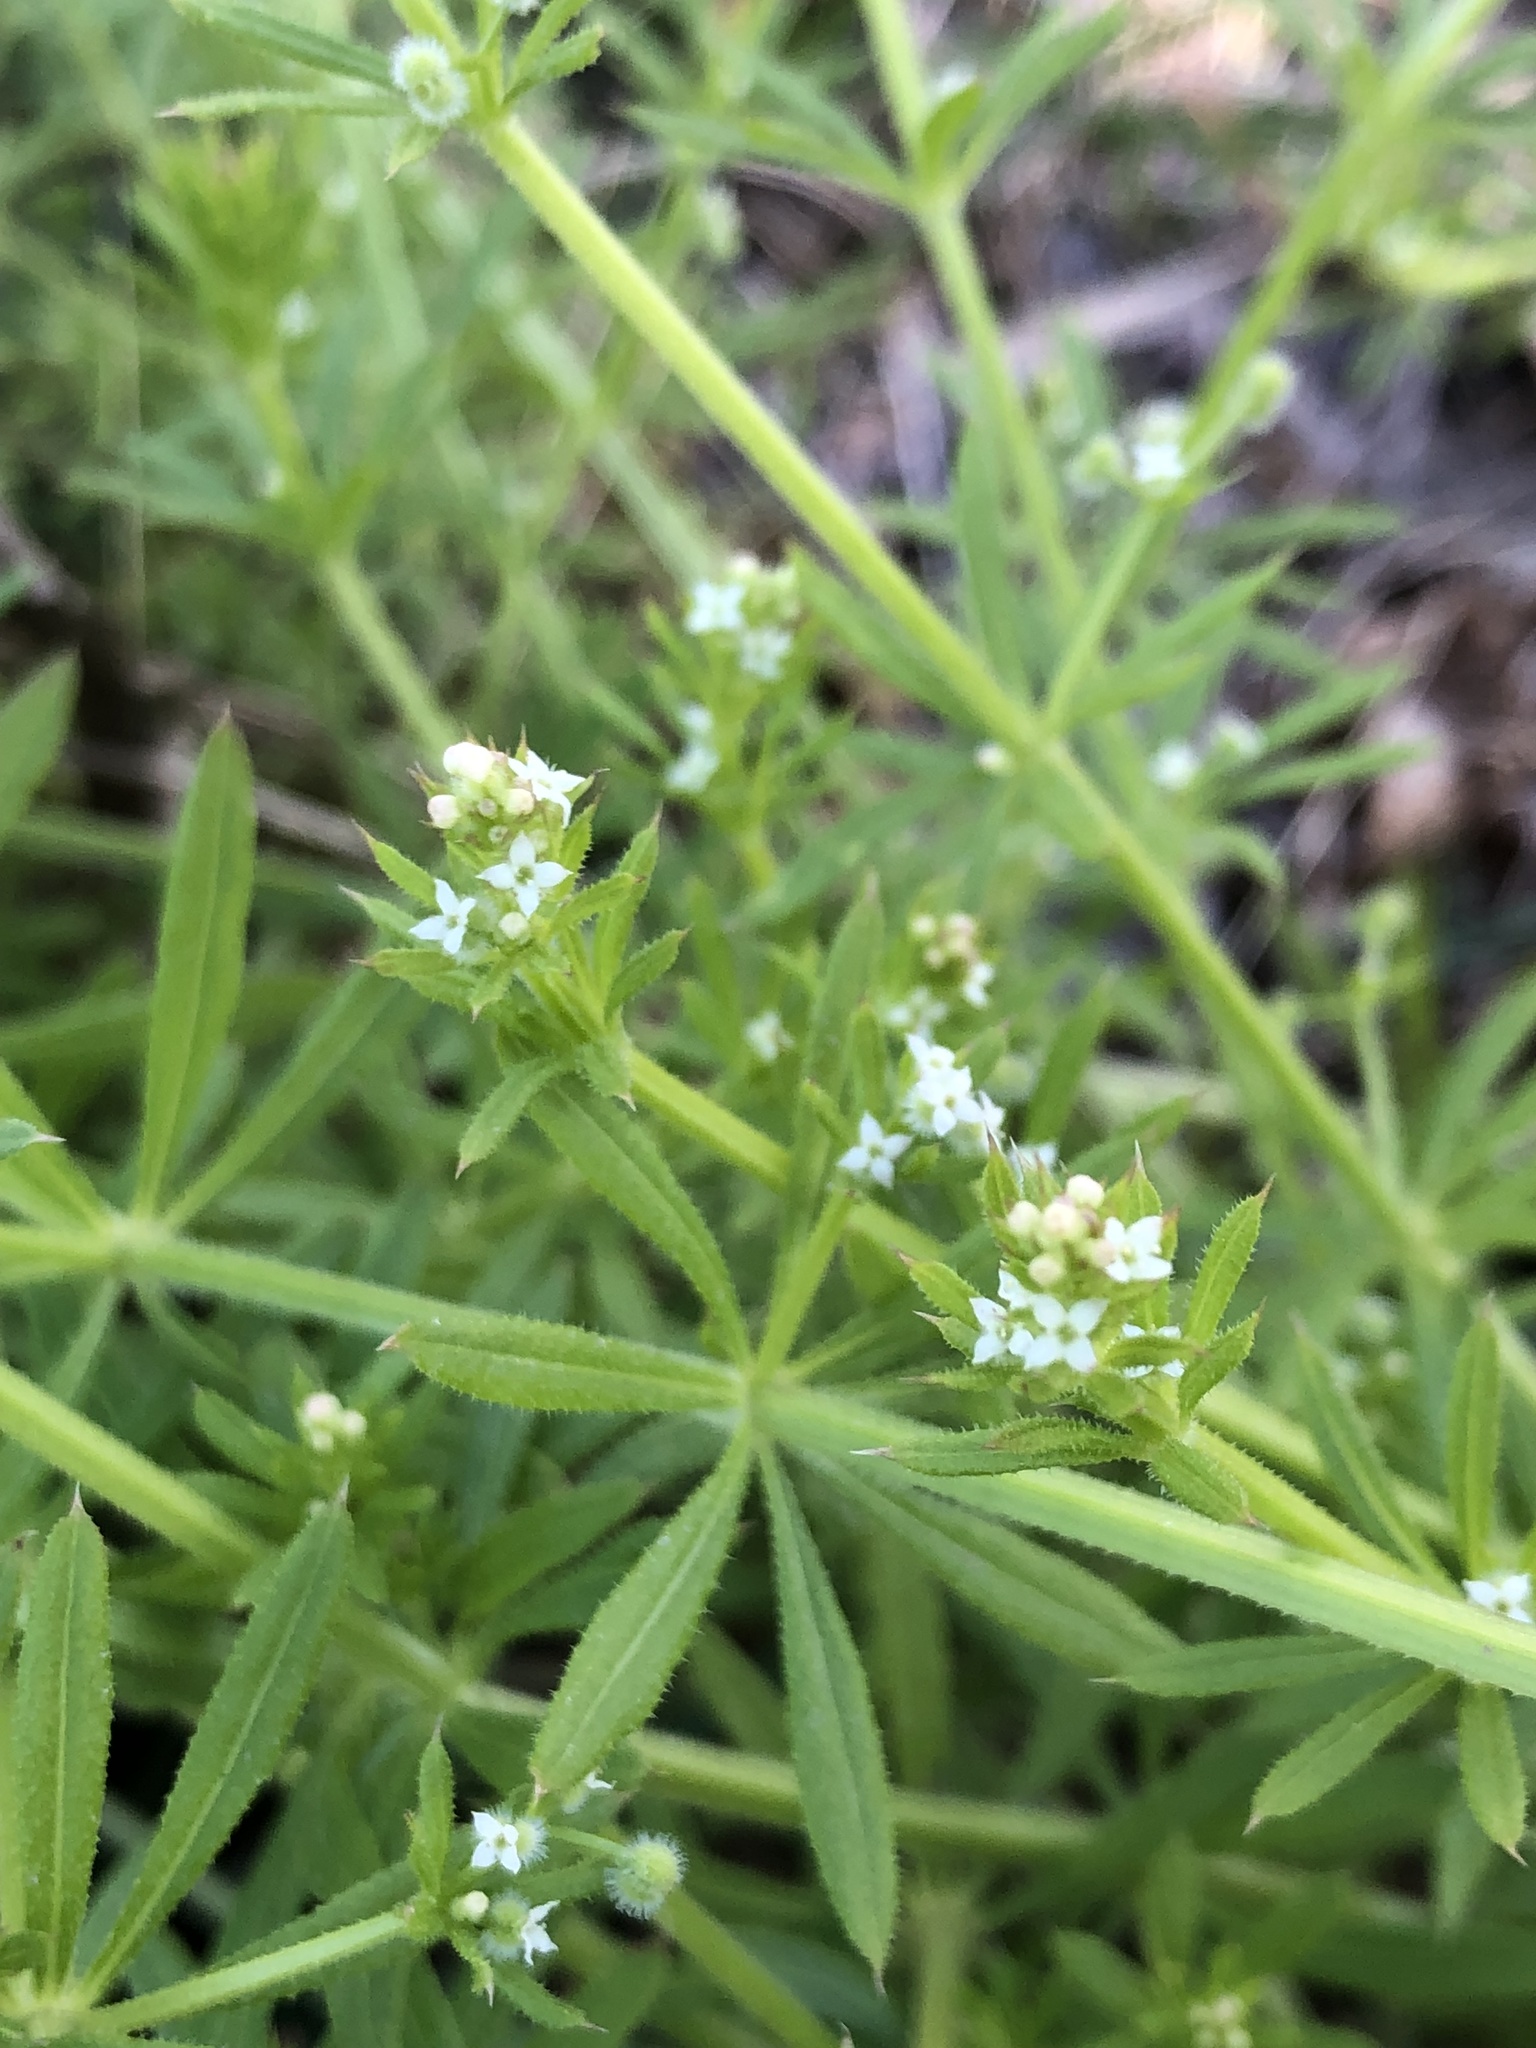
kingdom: Plantae
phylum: Tracheophyta
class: Magnoliopsida
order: Gentianales
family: Rubiaceae
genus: Galium
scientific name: Galium aparine
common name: Cleavers
